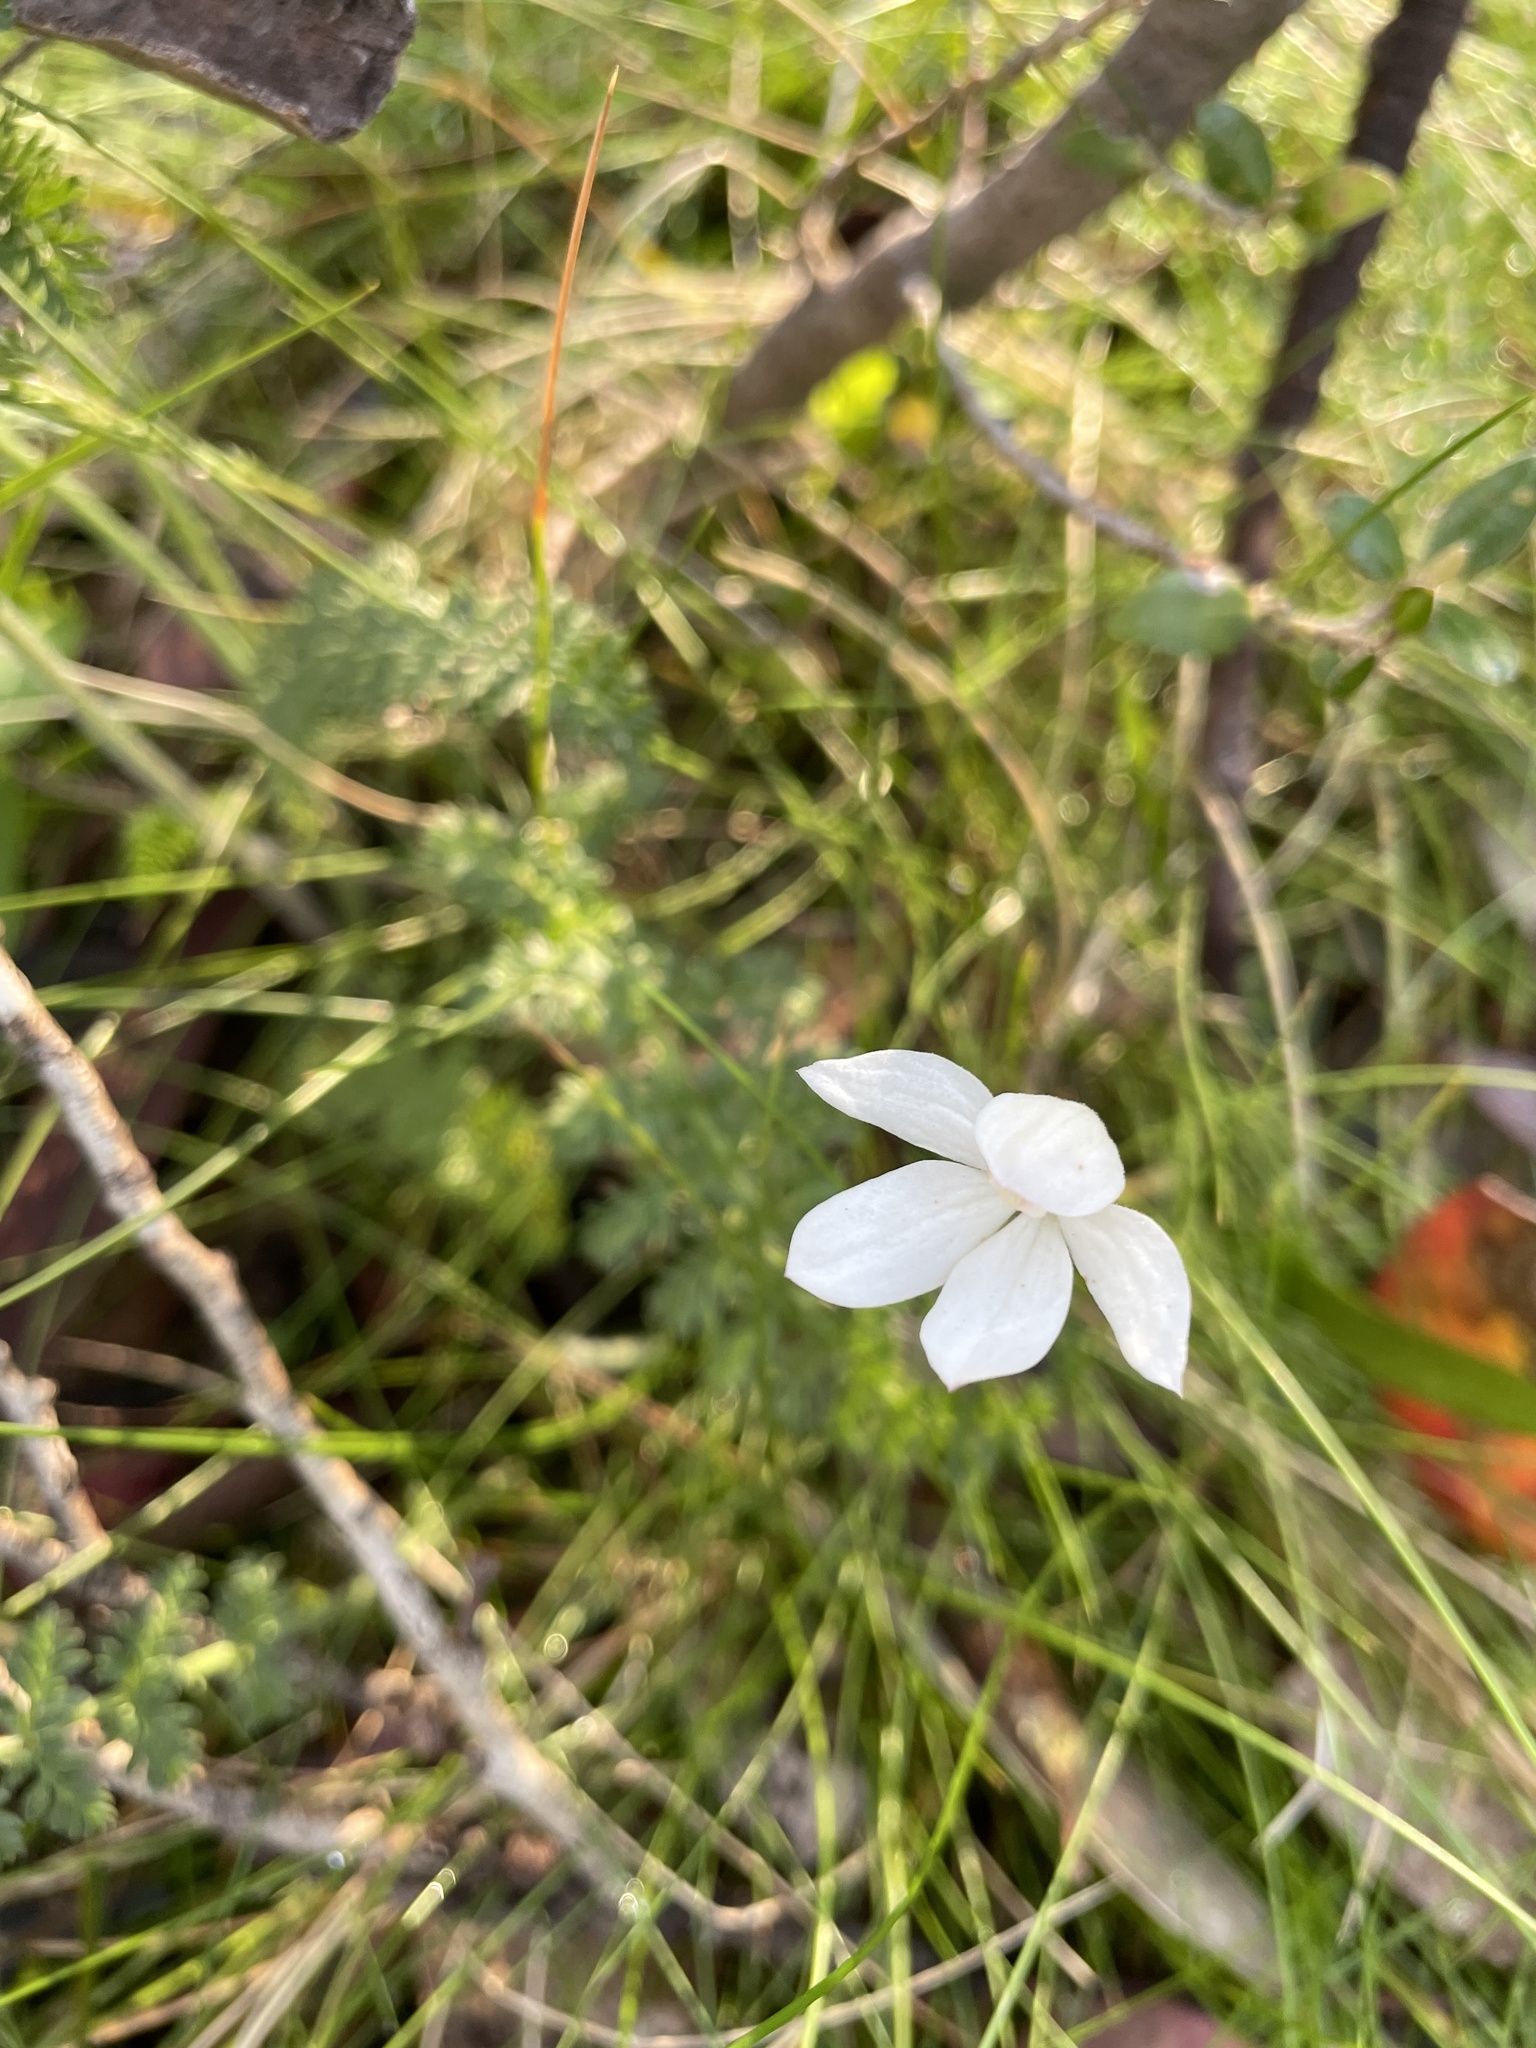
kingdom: Plantae
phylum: Tracheophyta
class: Liliopsida
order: Asparagales
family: Orchidaceae
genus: Caladenia
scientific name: Caladenia alpina
